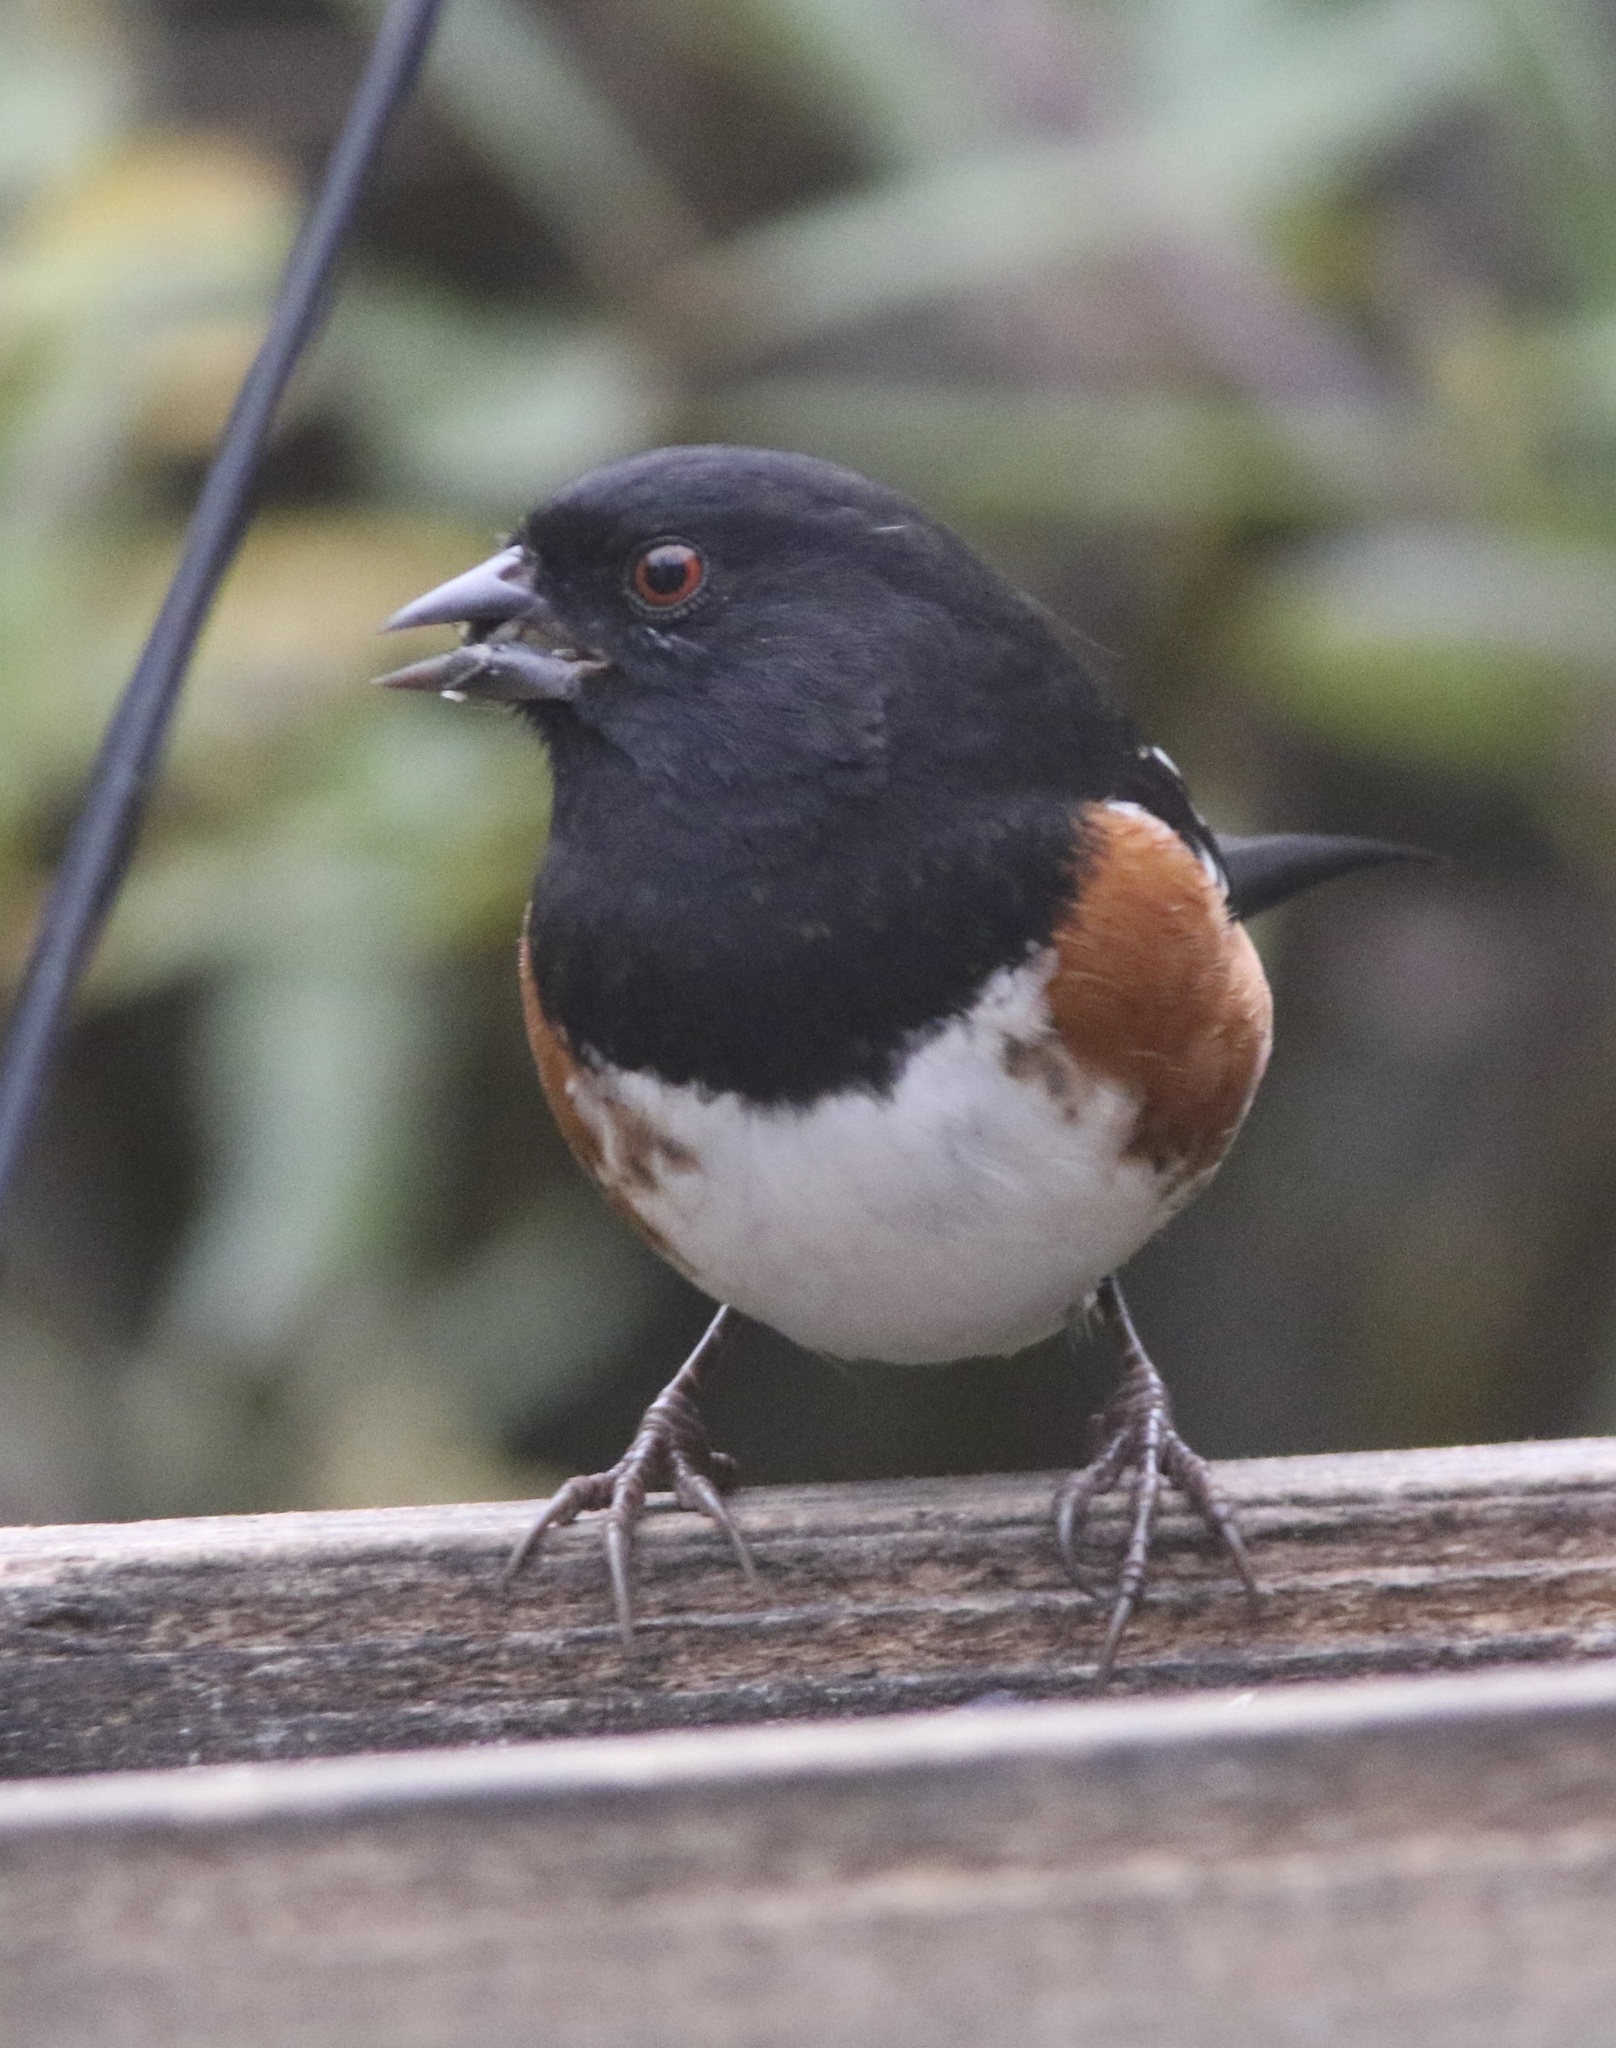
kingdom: Animalia
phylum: Chordata
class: Aves
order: Passeriformes
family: Passerellidae
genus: Pipilo
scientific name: Pipilo maculatus
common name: Spotted towhee
